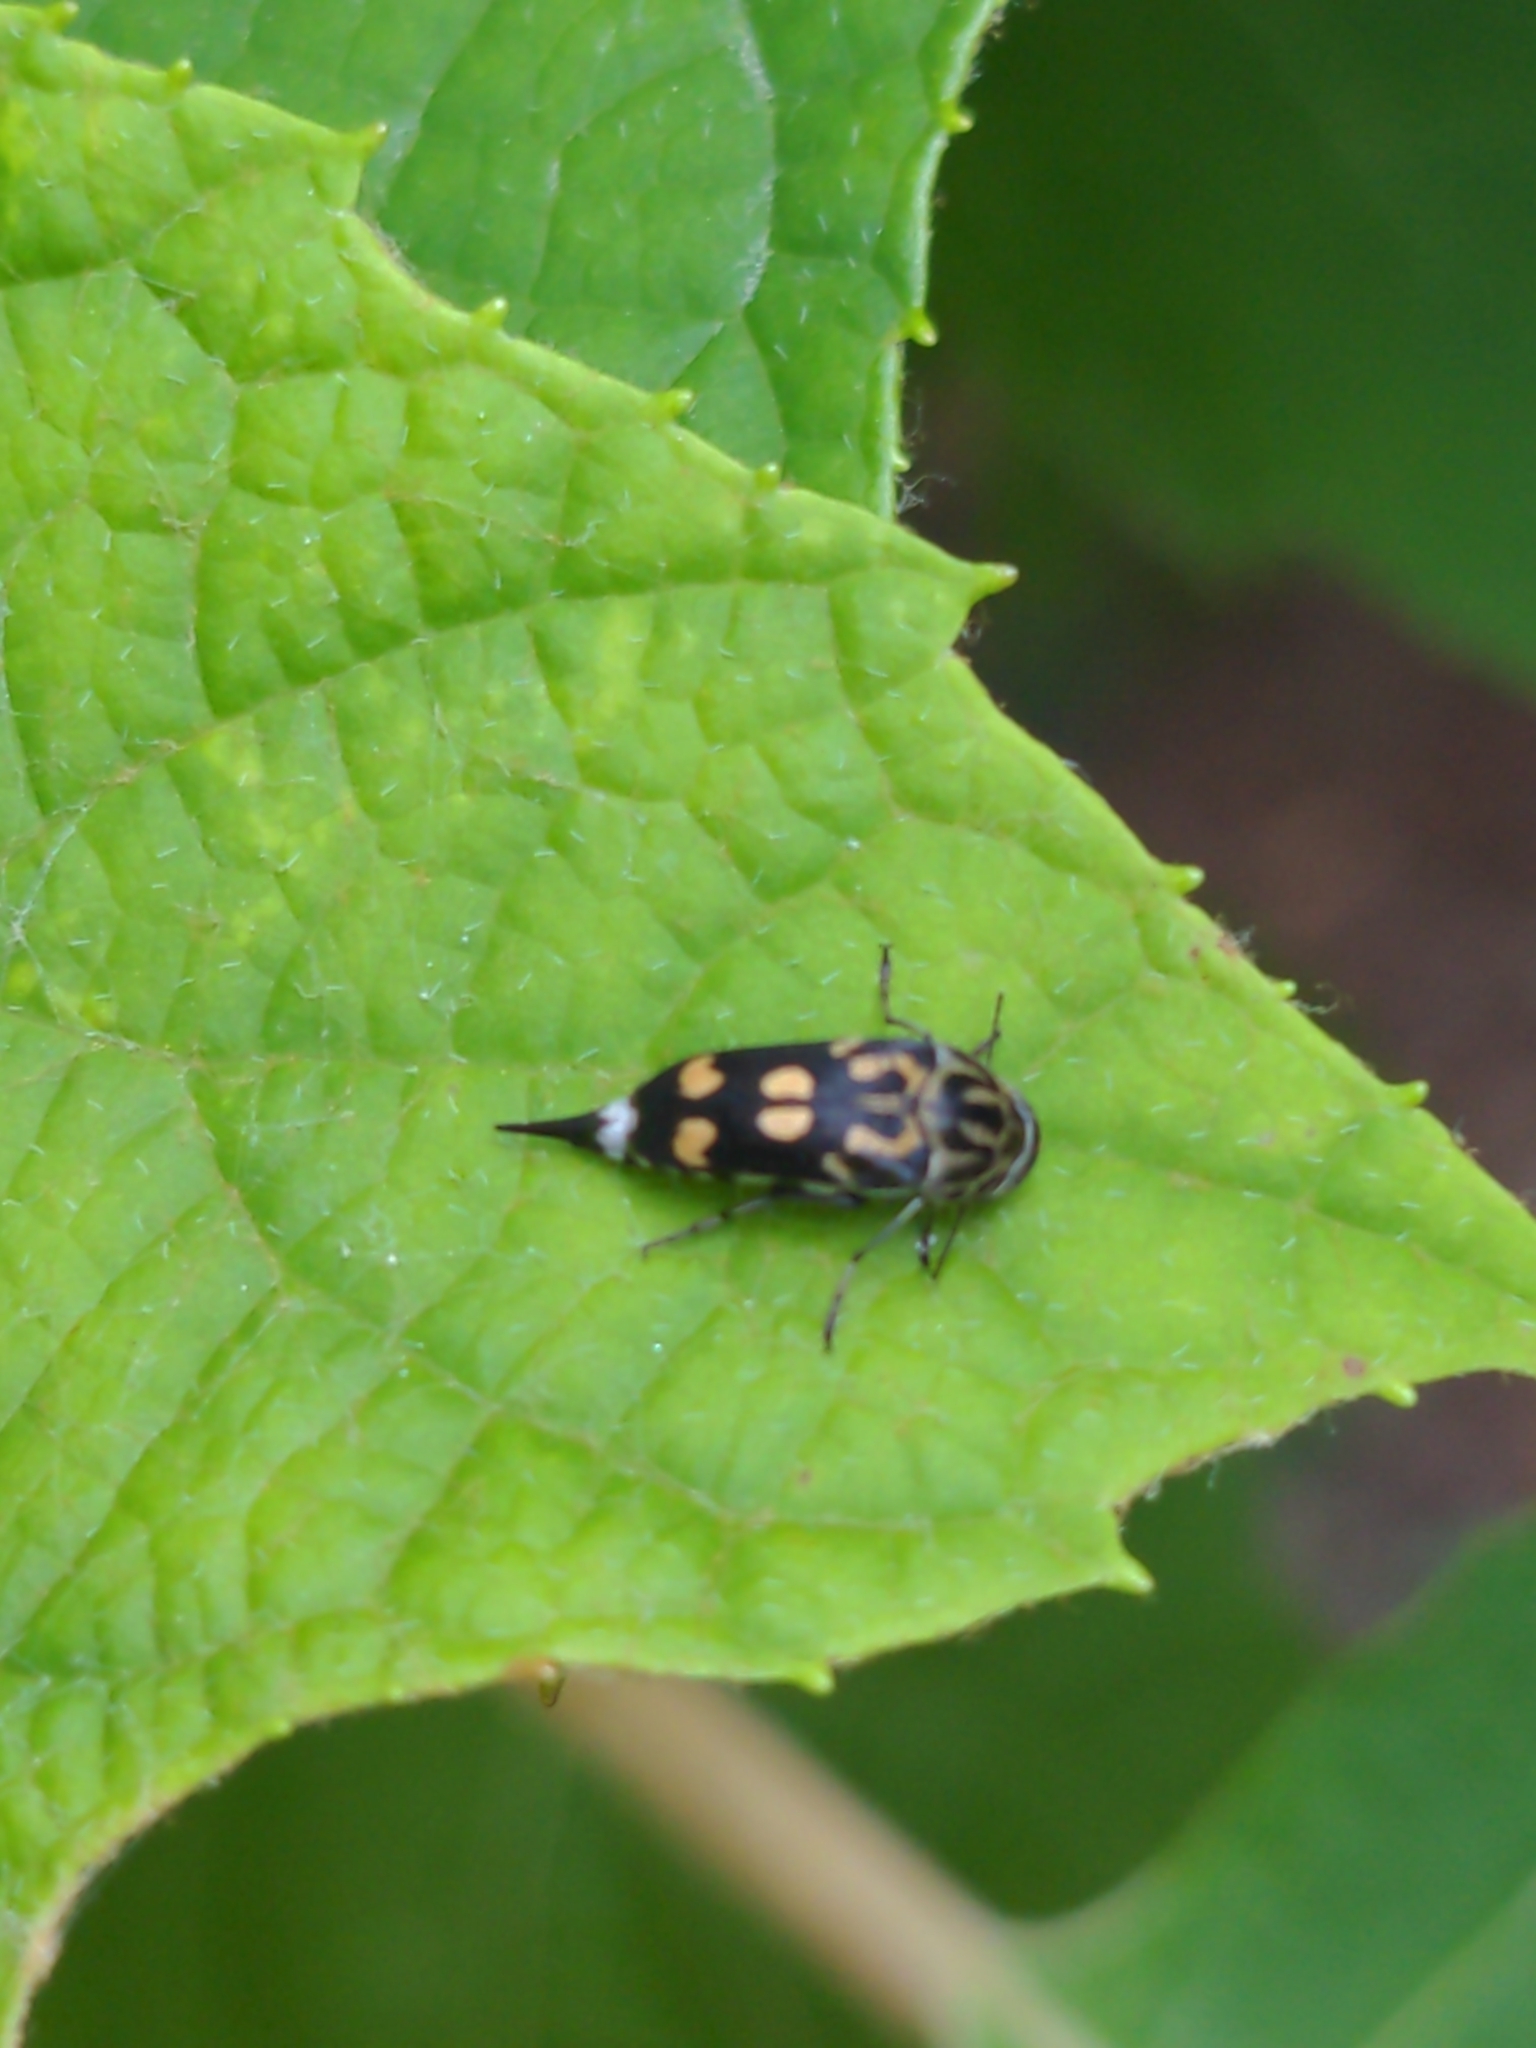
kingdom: Animalia
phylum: Arthropoda
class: Insecta
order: Coleoptera
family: Mordellidae
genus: Hoshihananomia
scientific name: Hoshihananomia octopunctata
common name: Eight-spotted tumbling flower beetle
